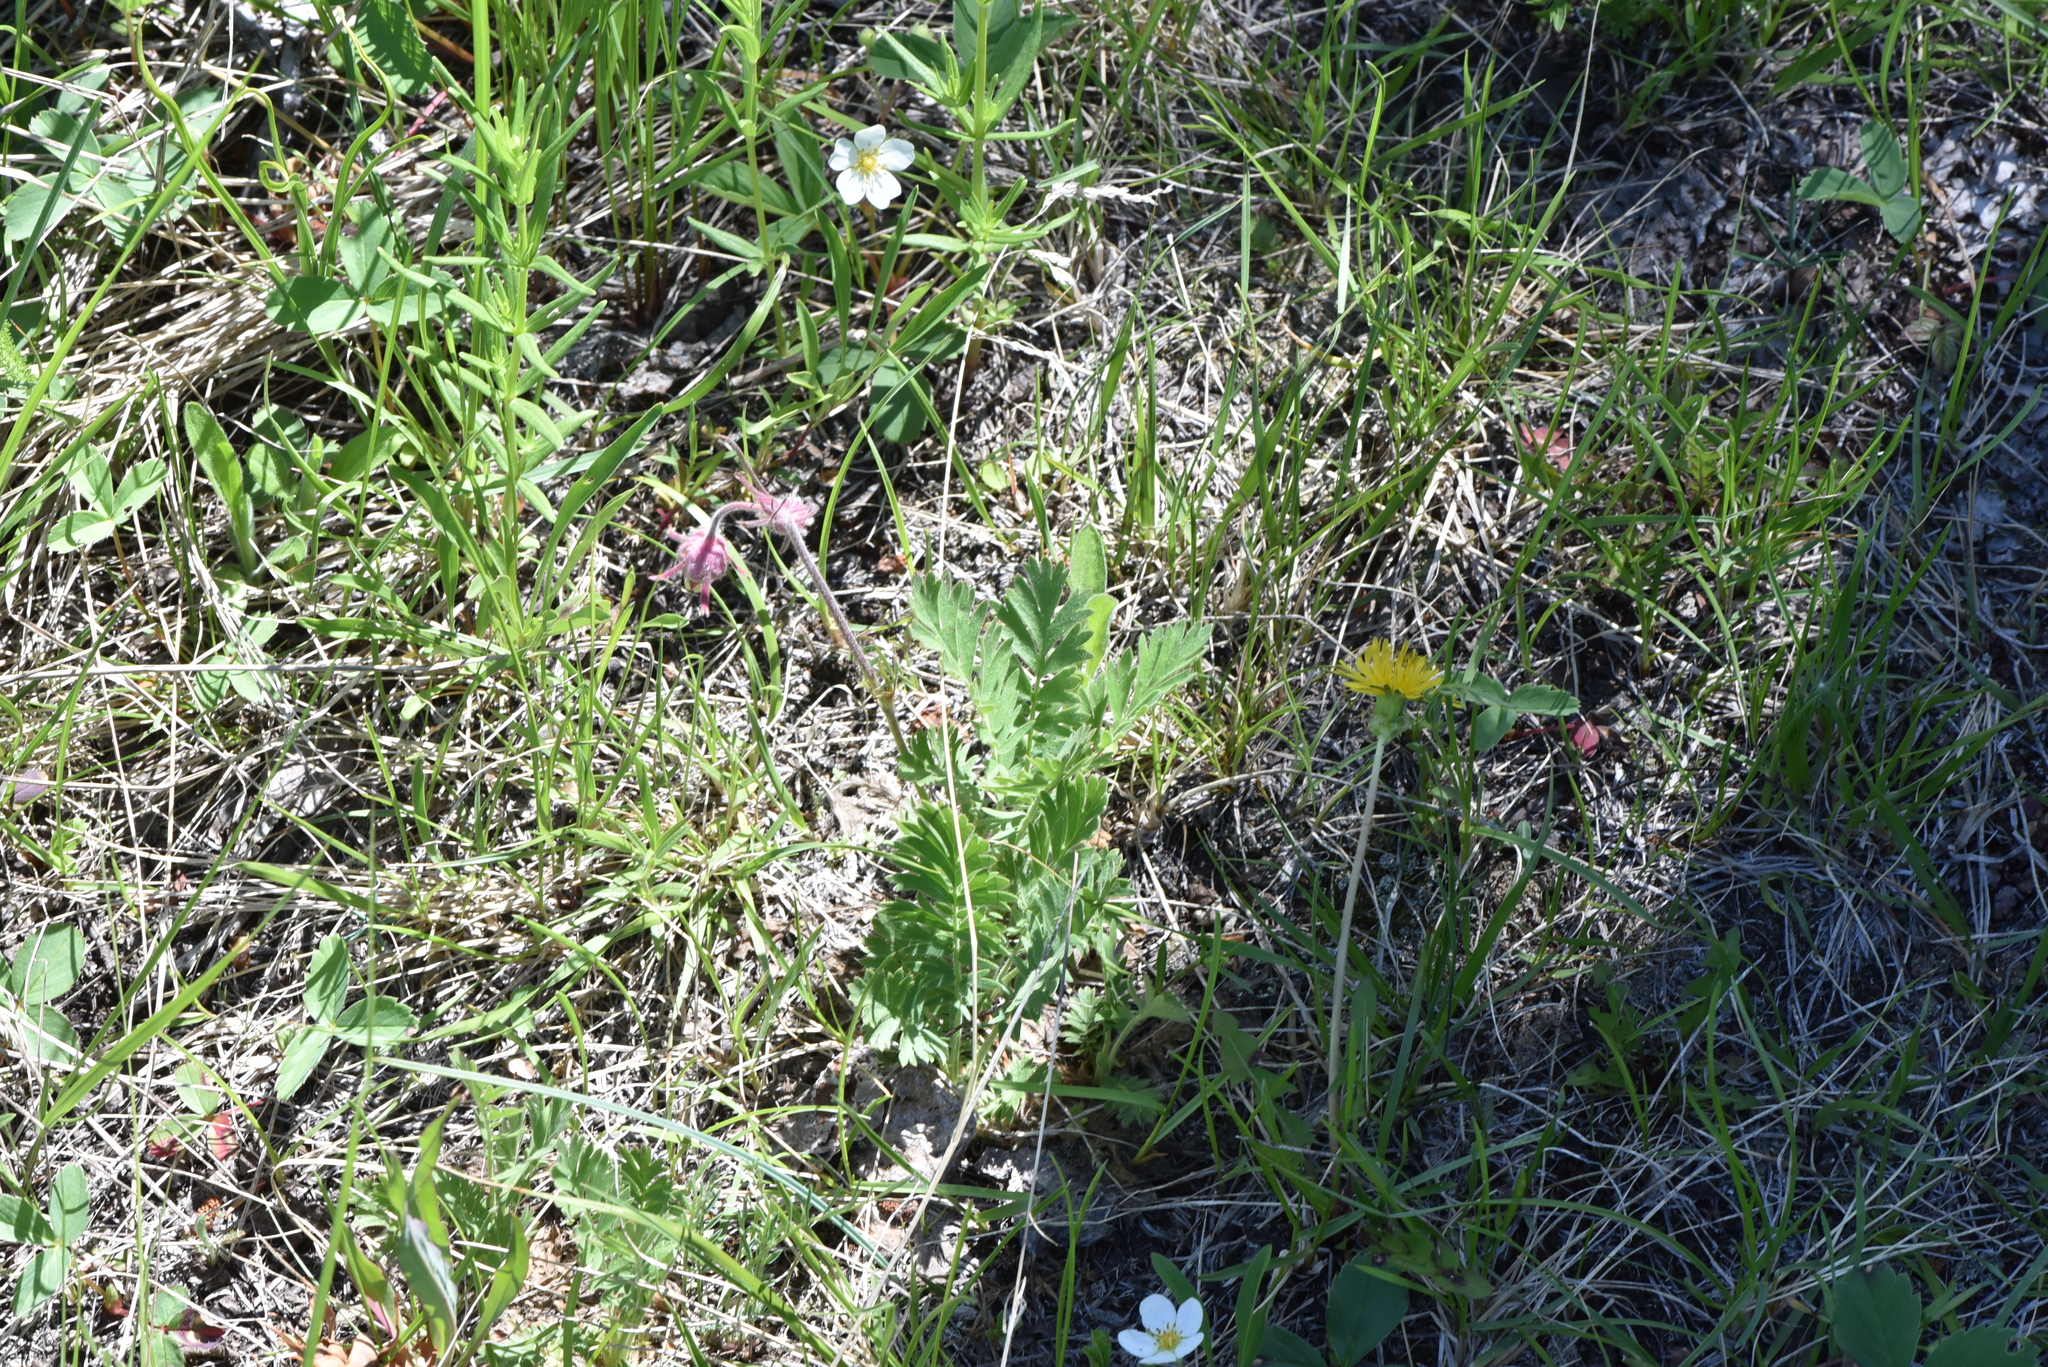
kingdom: Plantae
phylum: Tracheophyta
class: Magnoliopsida
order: Rosales
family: Rosaceae
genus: Geum
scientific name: Geum triflorum
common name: Old man's whiskers
